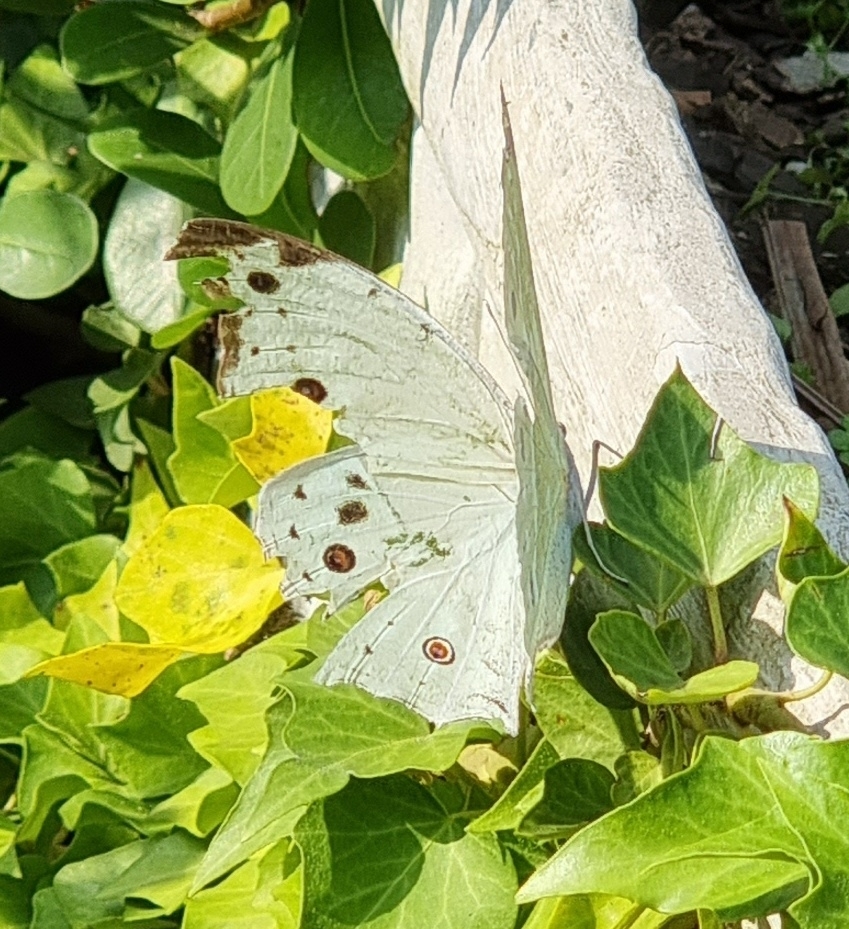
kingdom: Animalia
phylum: Arthropoda
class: Insecta
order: Lepidoptera
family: Nymphalidae
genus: Salamis
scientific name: Salamis Protogoniomorpha parhassus
